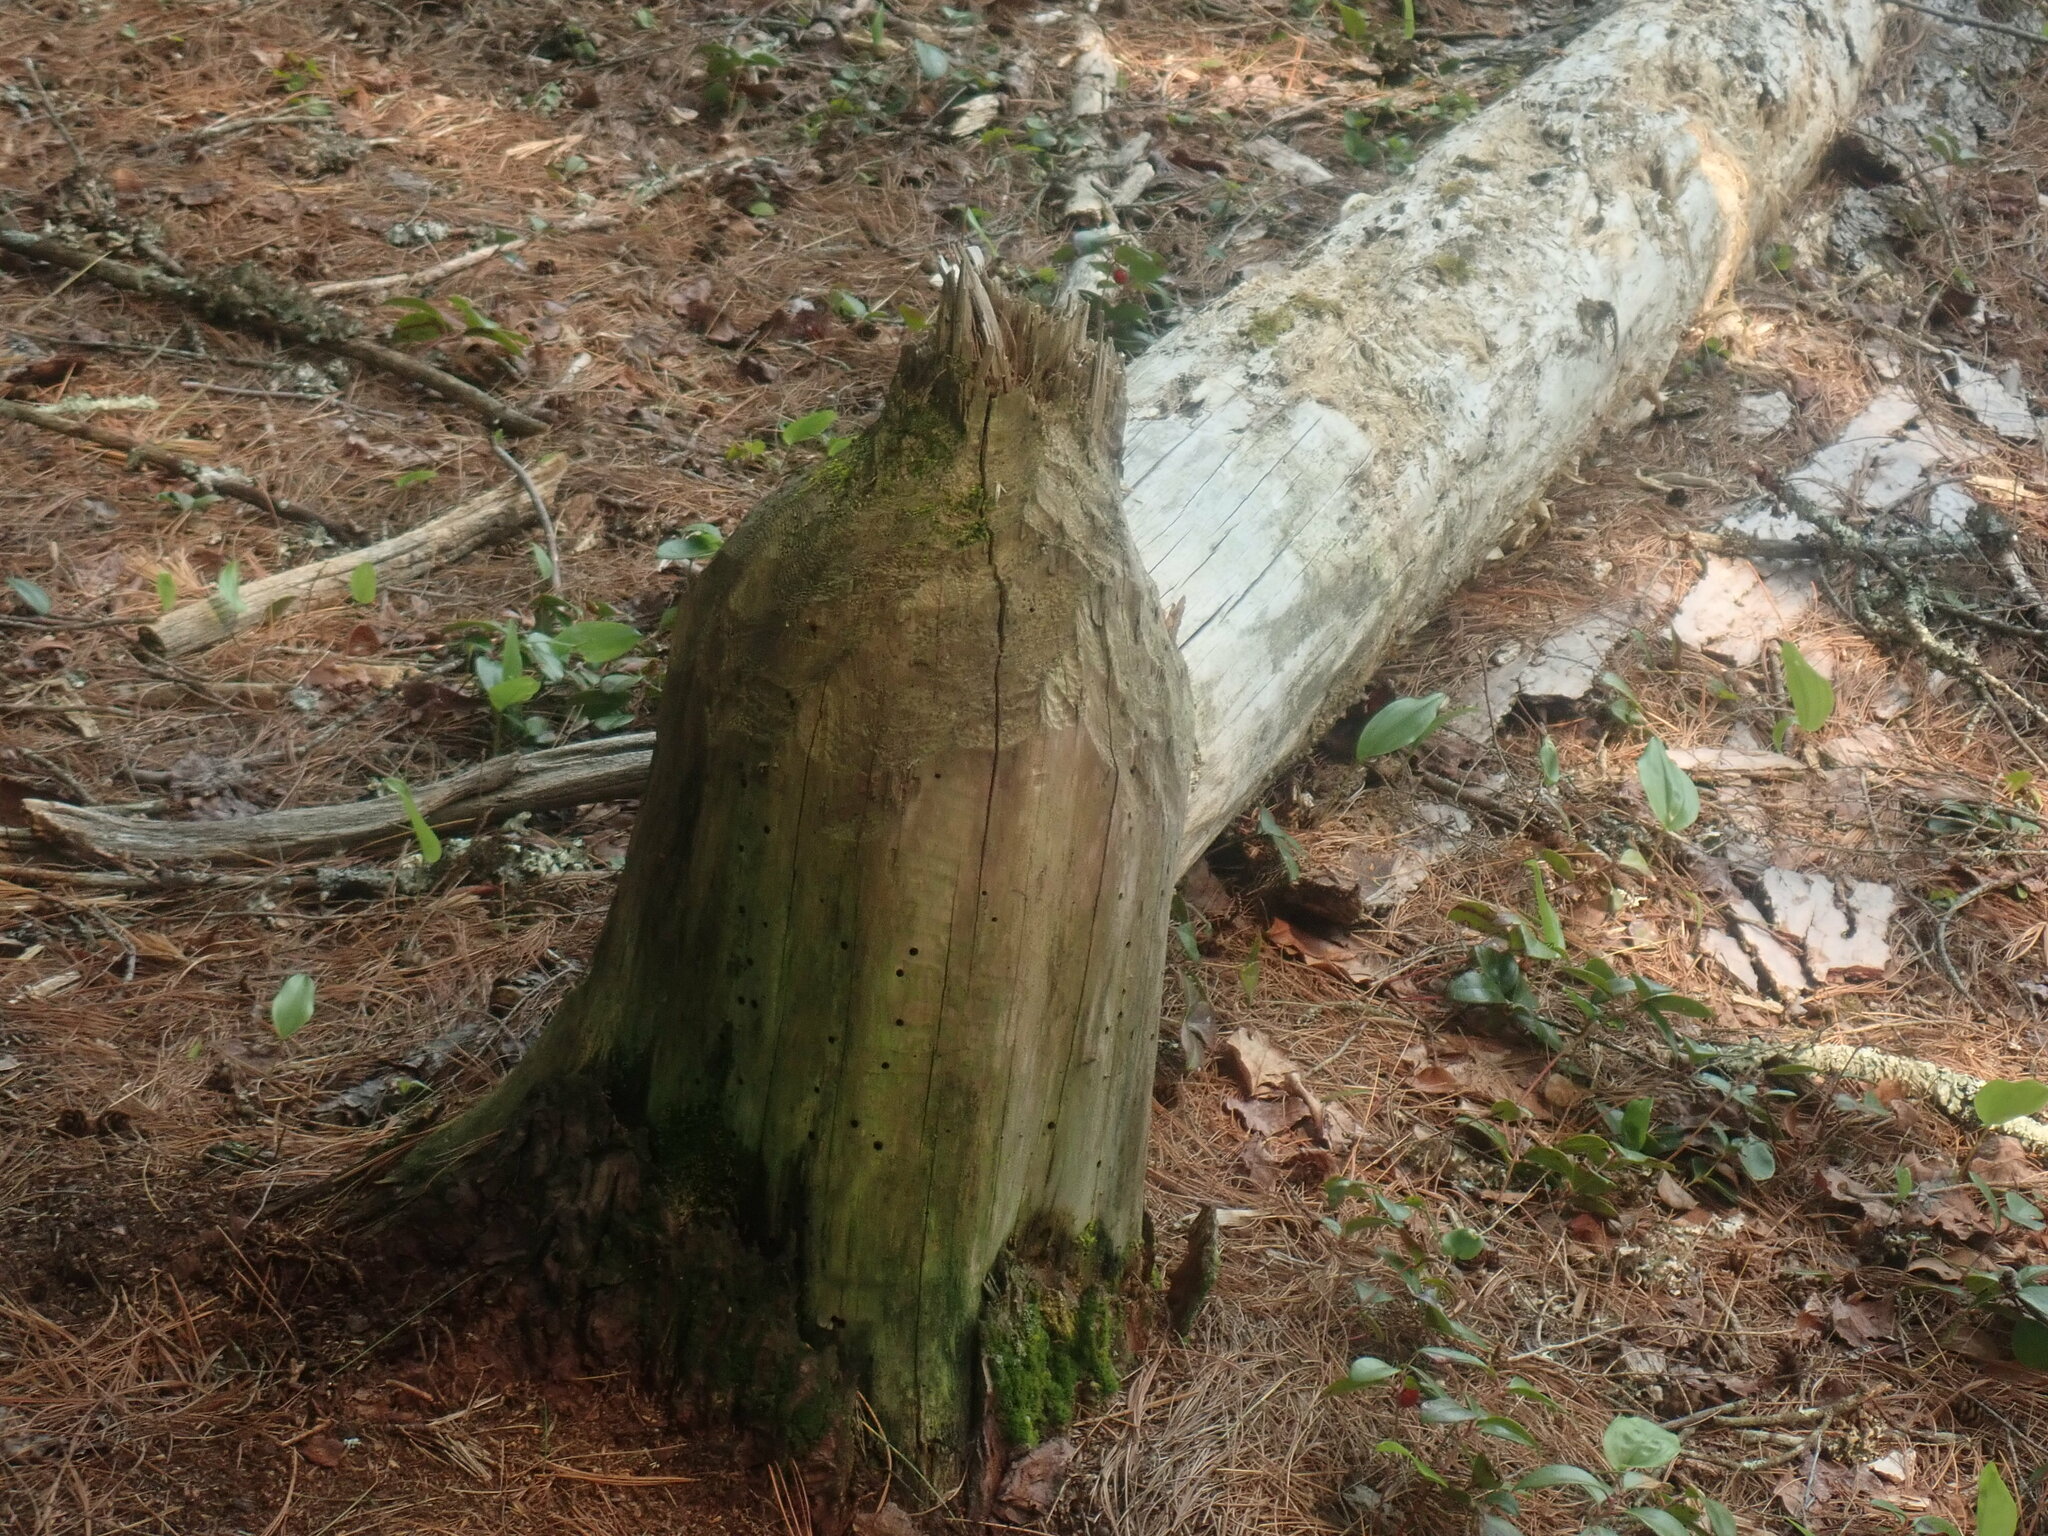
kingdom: Animalia
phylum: Chordata
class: Mammalia
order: Rodentia
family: Castoridae
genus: Castor
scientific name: Castor canadensis
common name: American beaver
